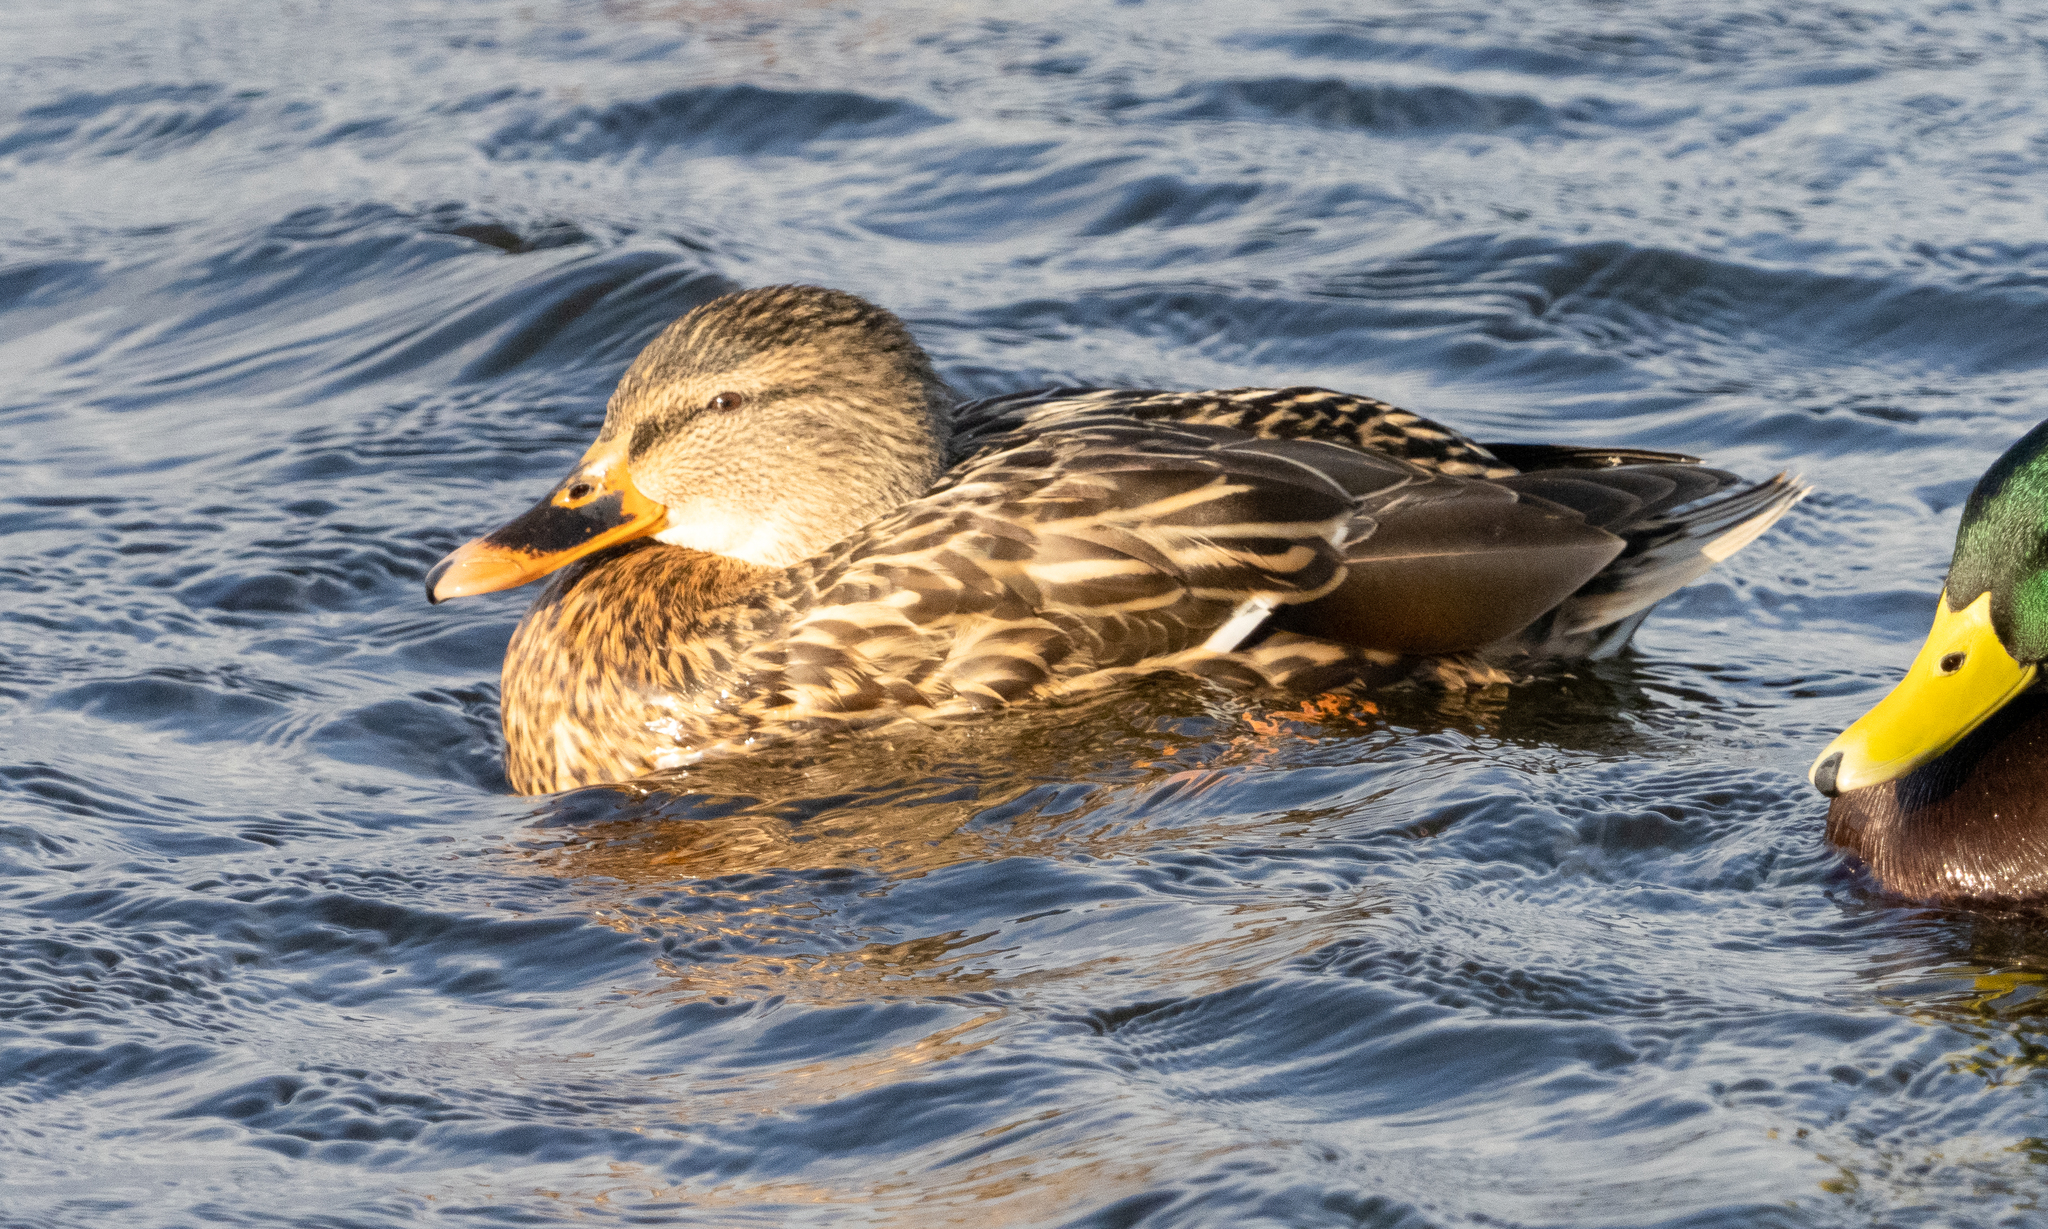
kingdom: Animalia
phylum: Chordata
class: Aves
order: Anseriformes
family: Anatidae
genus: Anas
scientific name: Anas platyrhynchos
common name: Mallard
